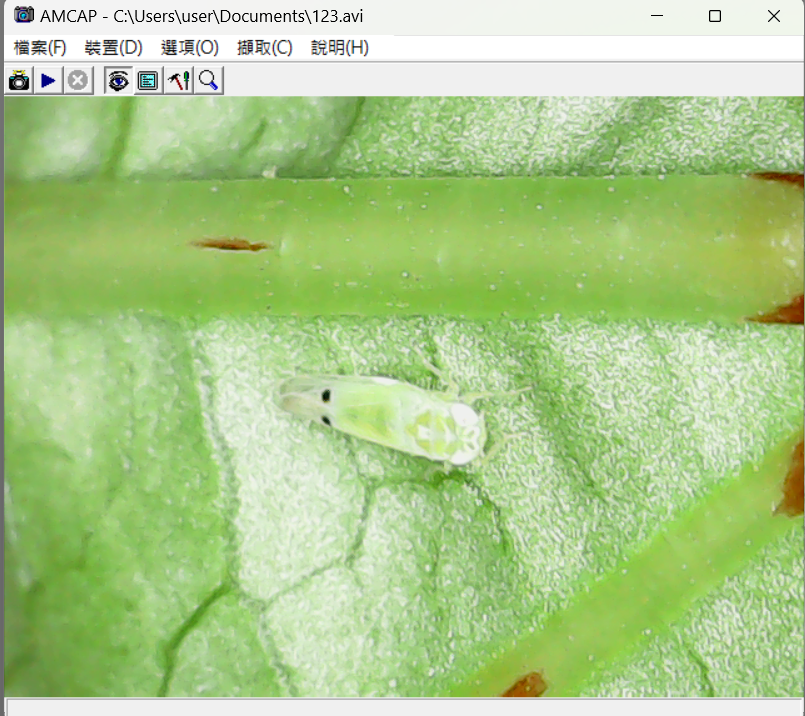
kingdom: Animalia
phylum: Arthropoda
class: Insecta
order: Hemiptera
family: Cicadellidae
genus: Amrasca
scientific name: Amrasca biguttula
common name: Indian cotton jassid
